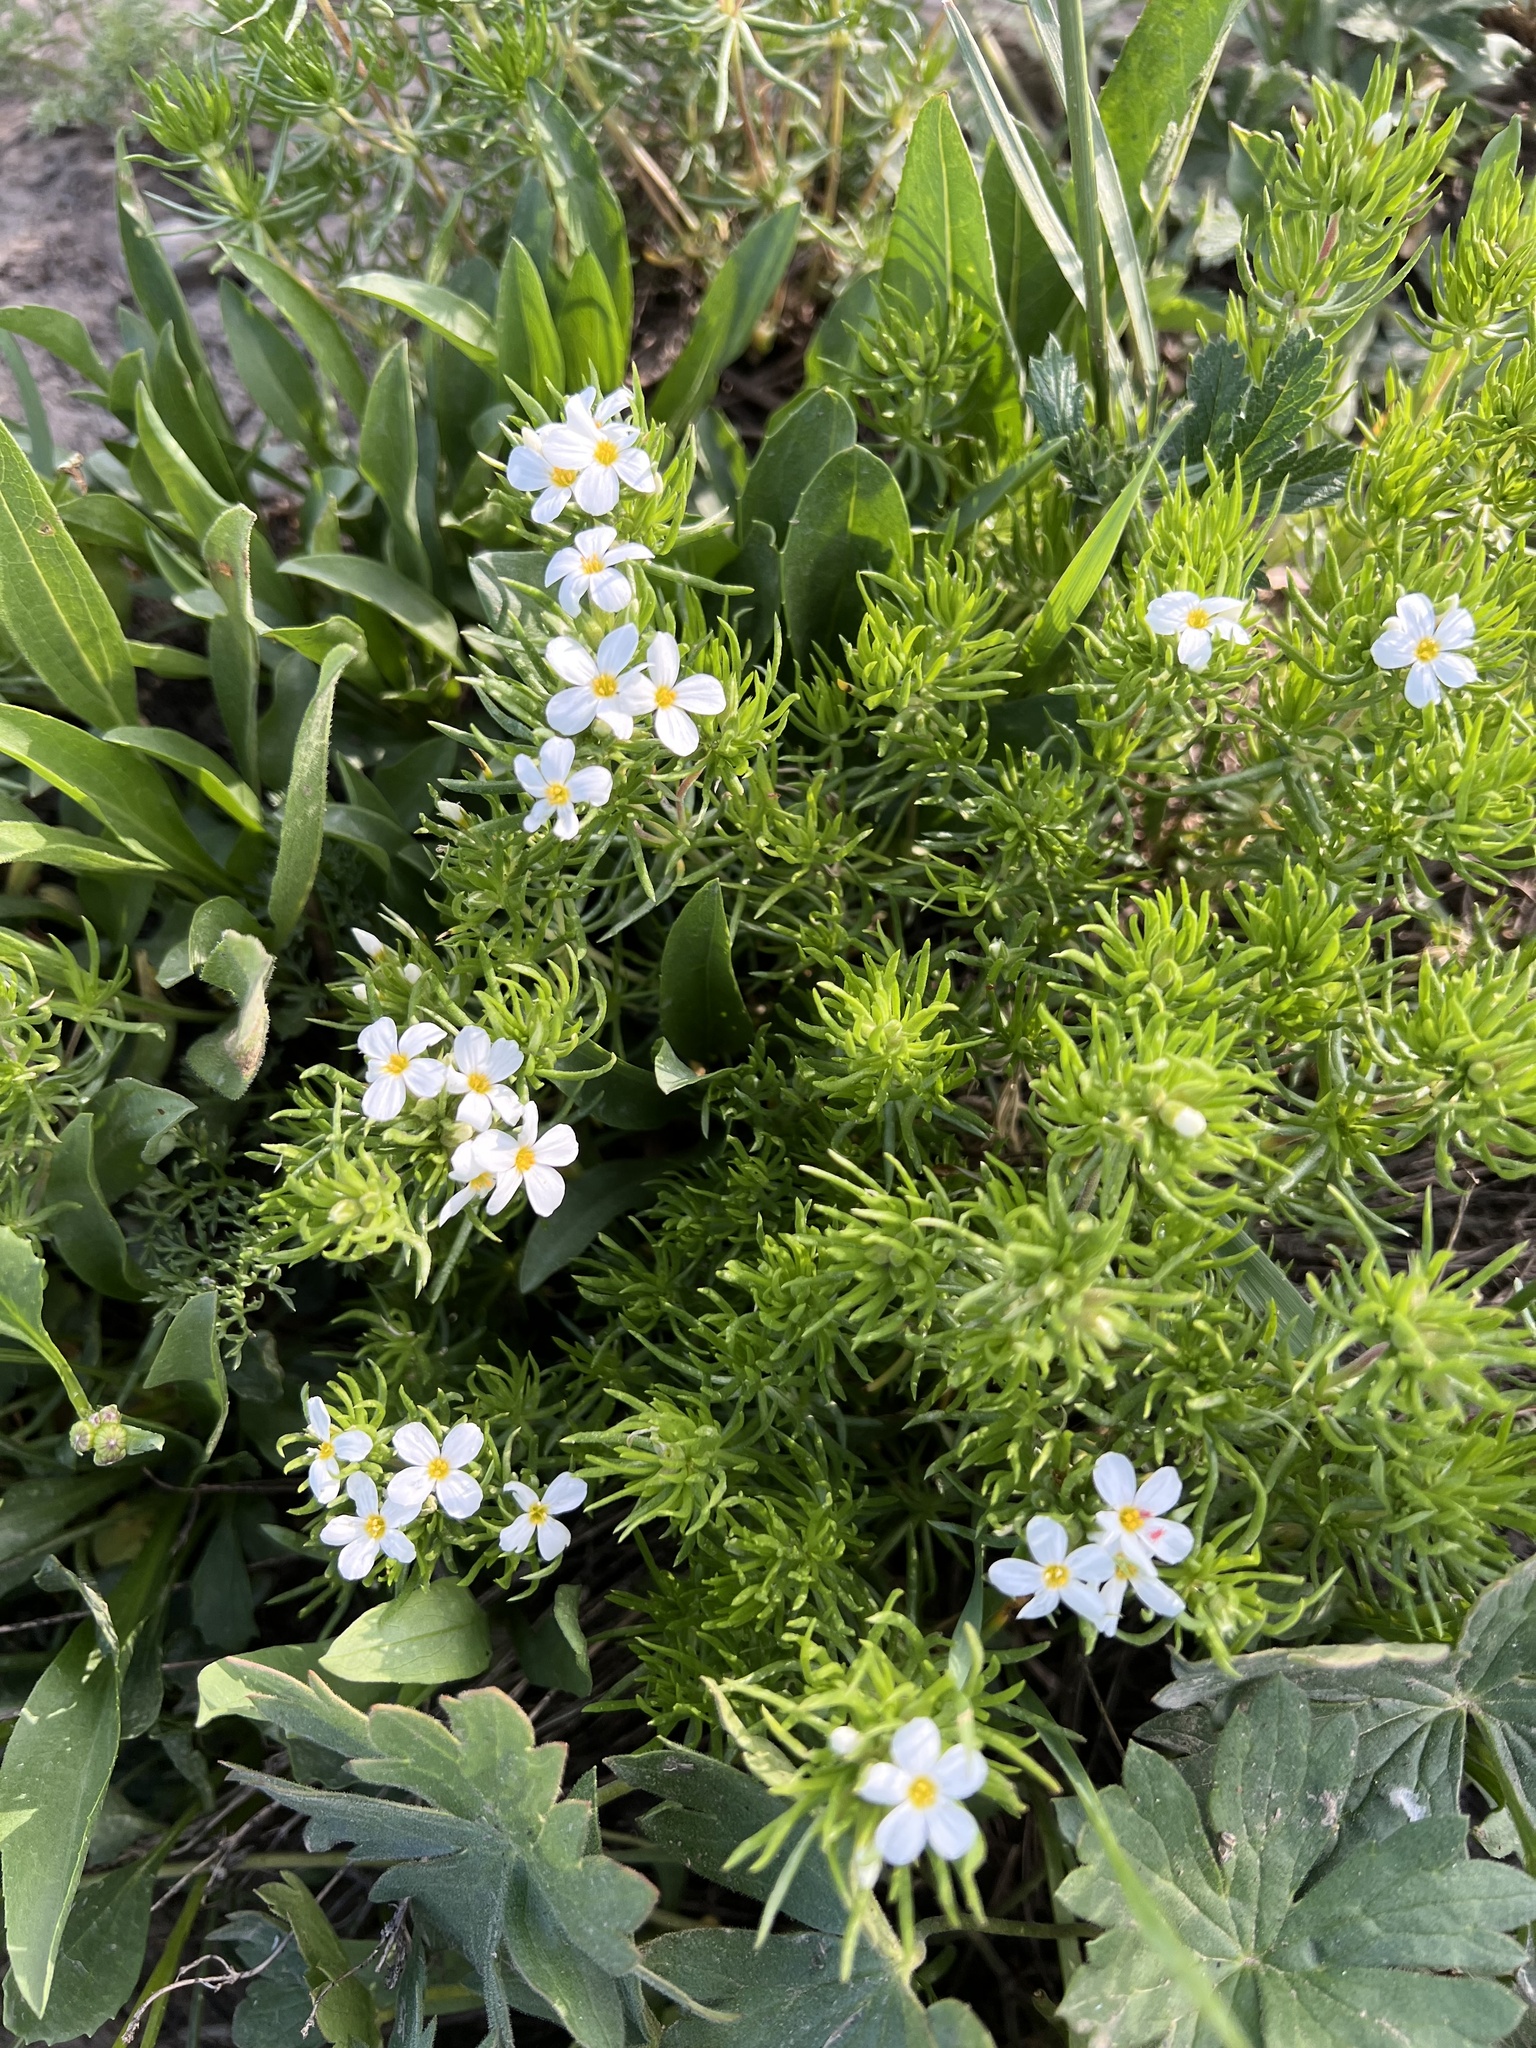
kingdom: Plantae
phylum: Tracheophyta
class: Magnoliopsida
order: Ericales
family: Polemoniaceae
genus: Leptosiphon
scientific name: Leptosiphon nuttallii
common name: Nuttall's linanthus
